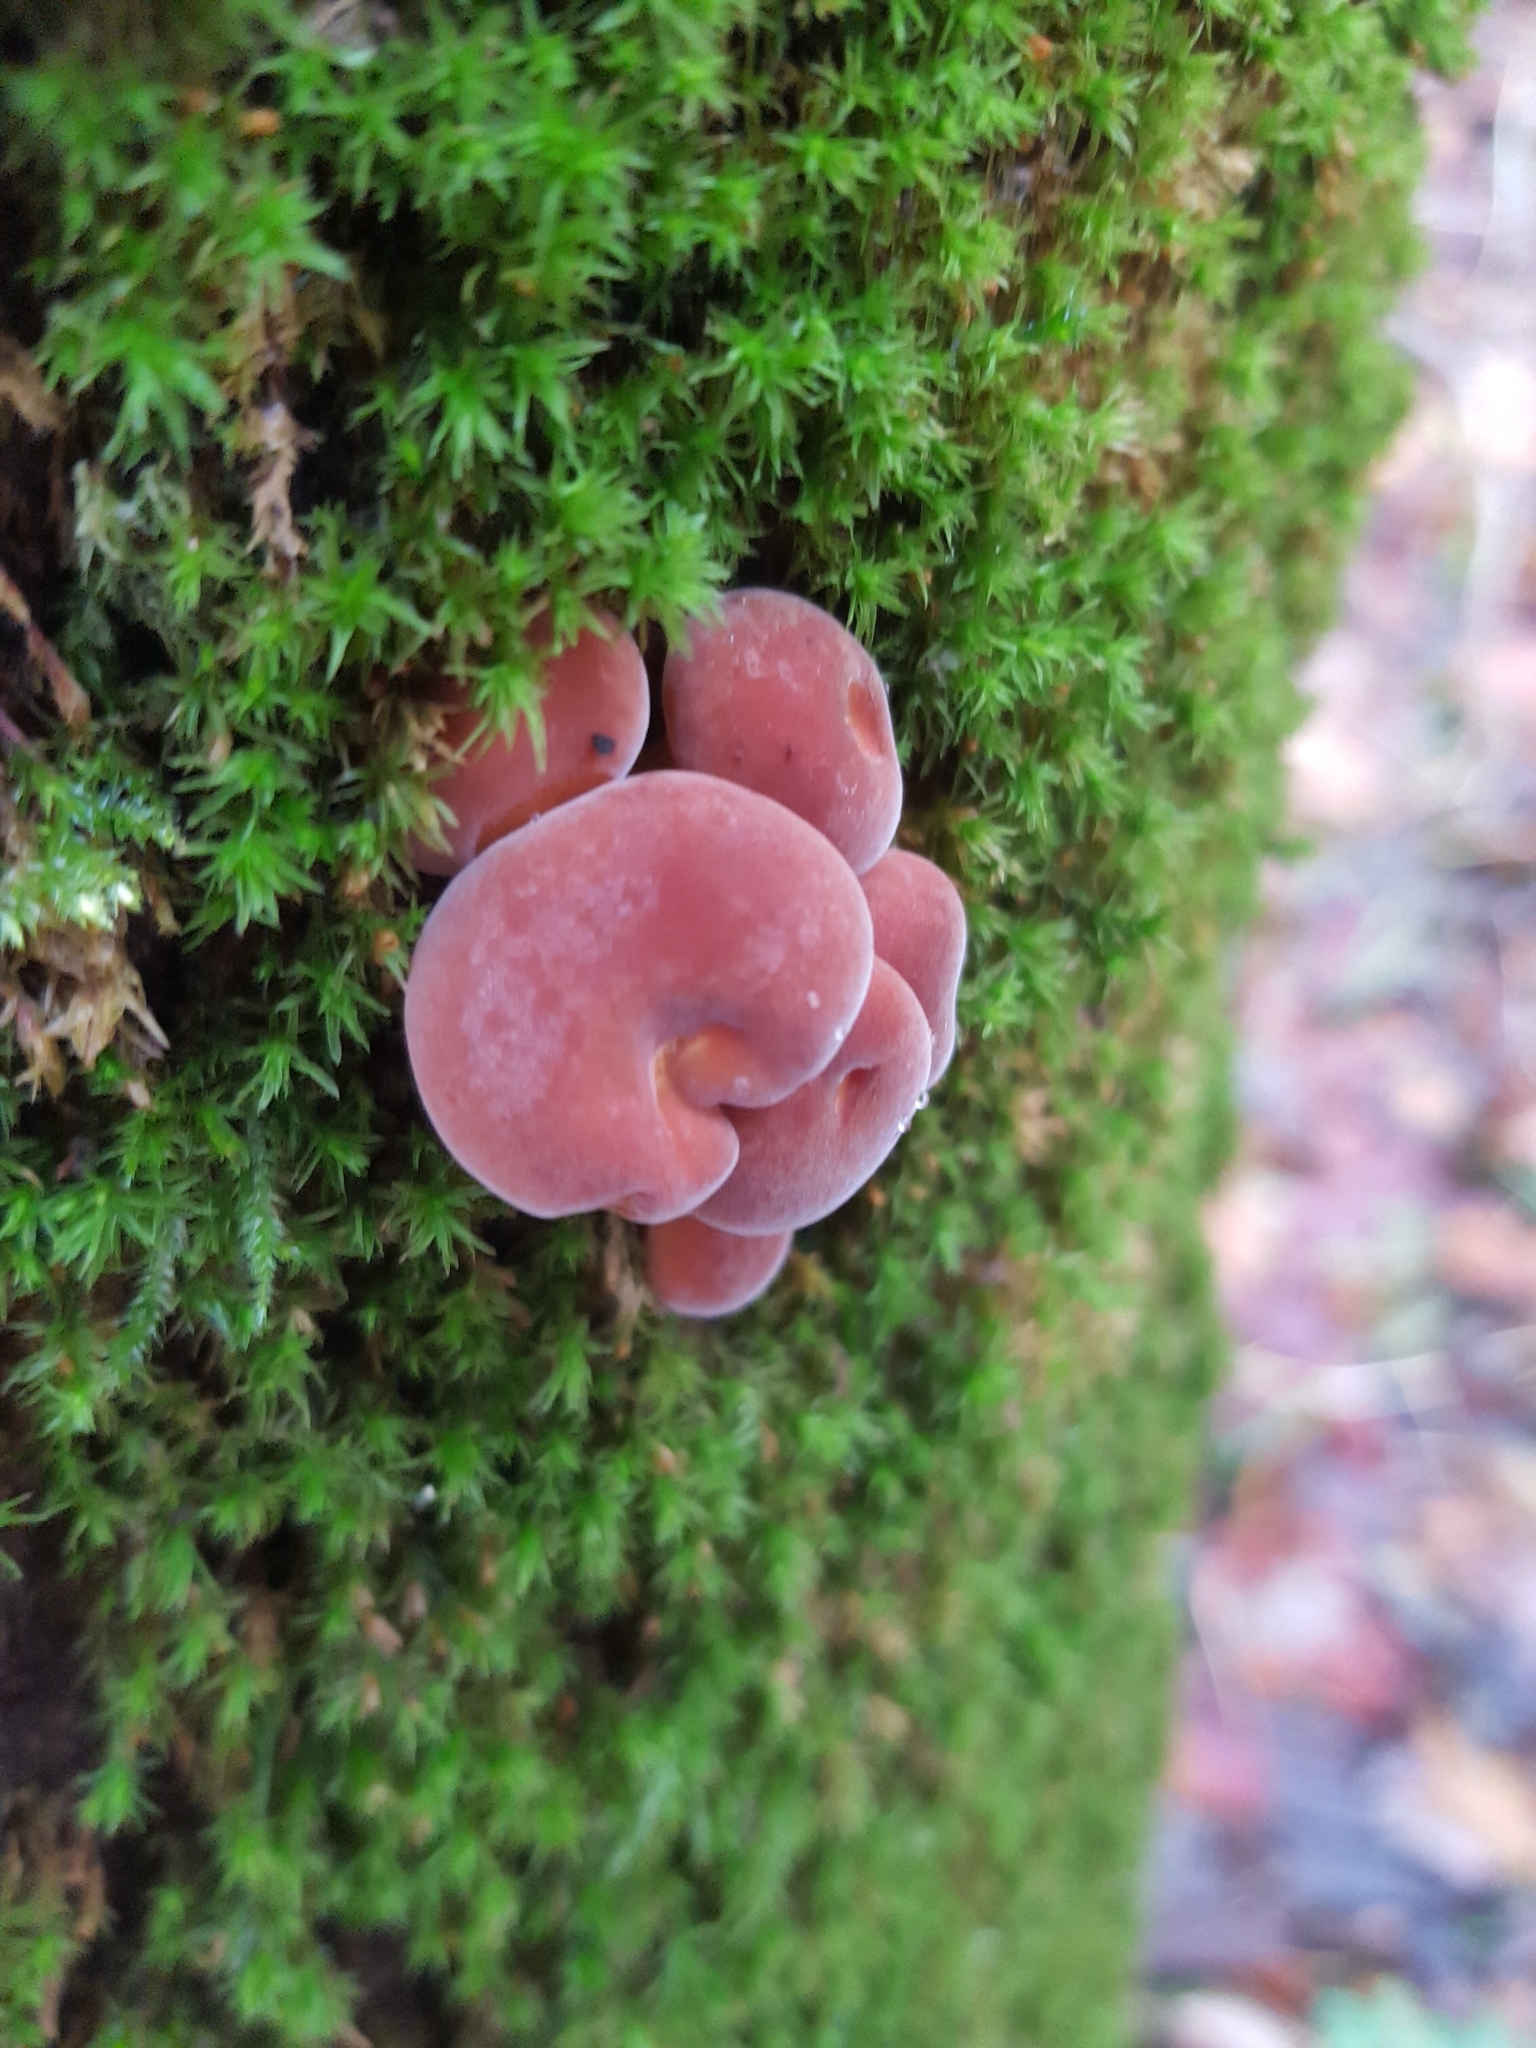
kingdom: Fungi
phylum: Basidiomycota
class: Agaricomycetes
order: Agaricales
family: Physalacriaceae
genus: Flammulina
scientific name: Flammulina
